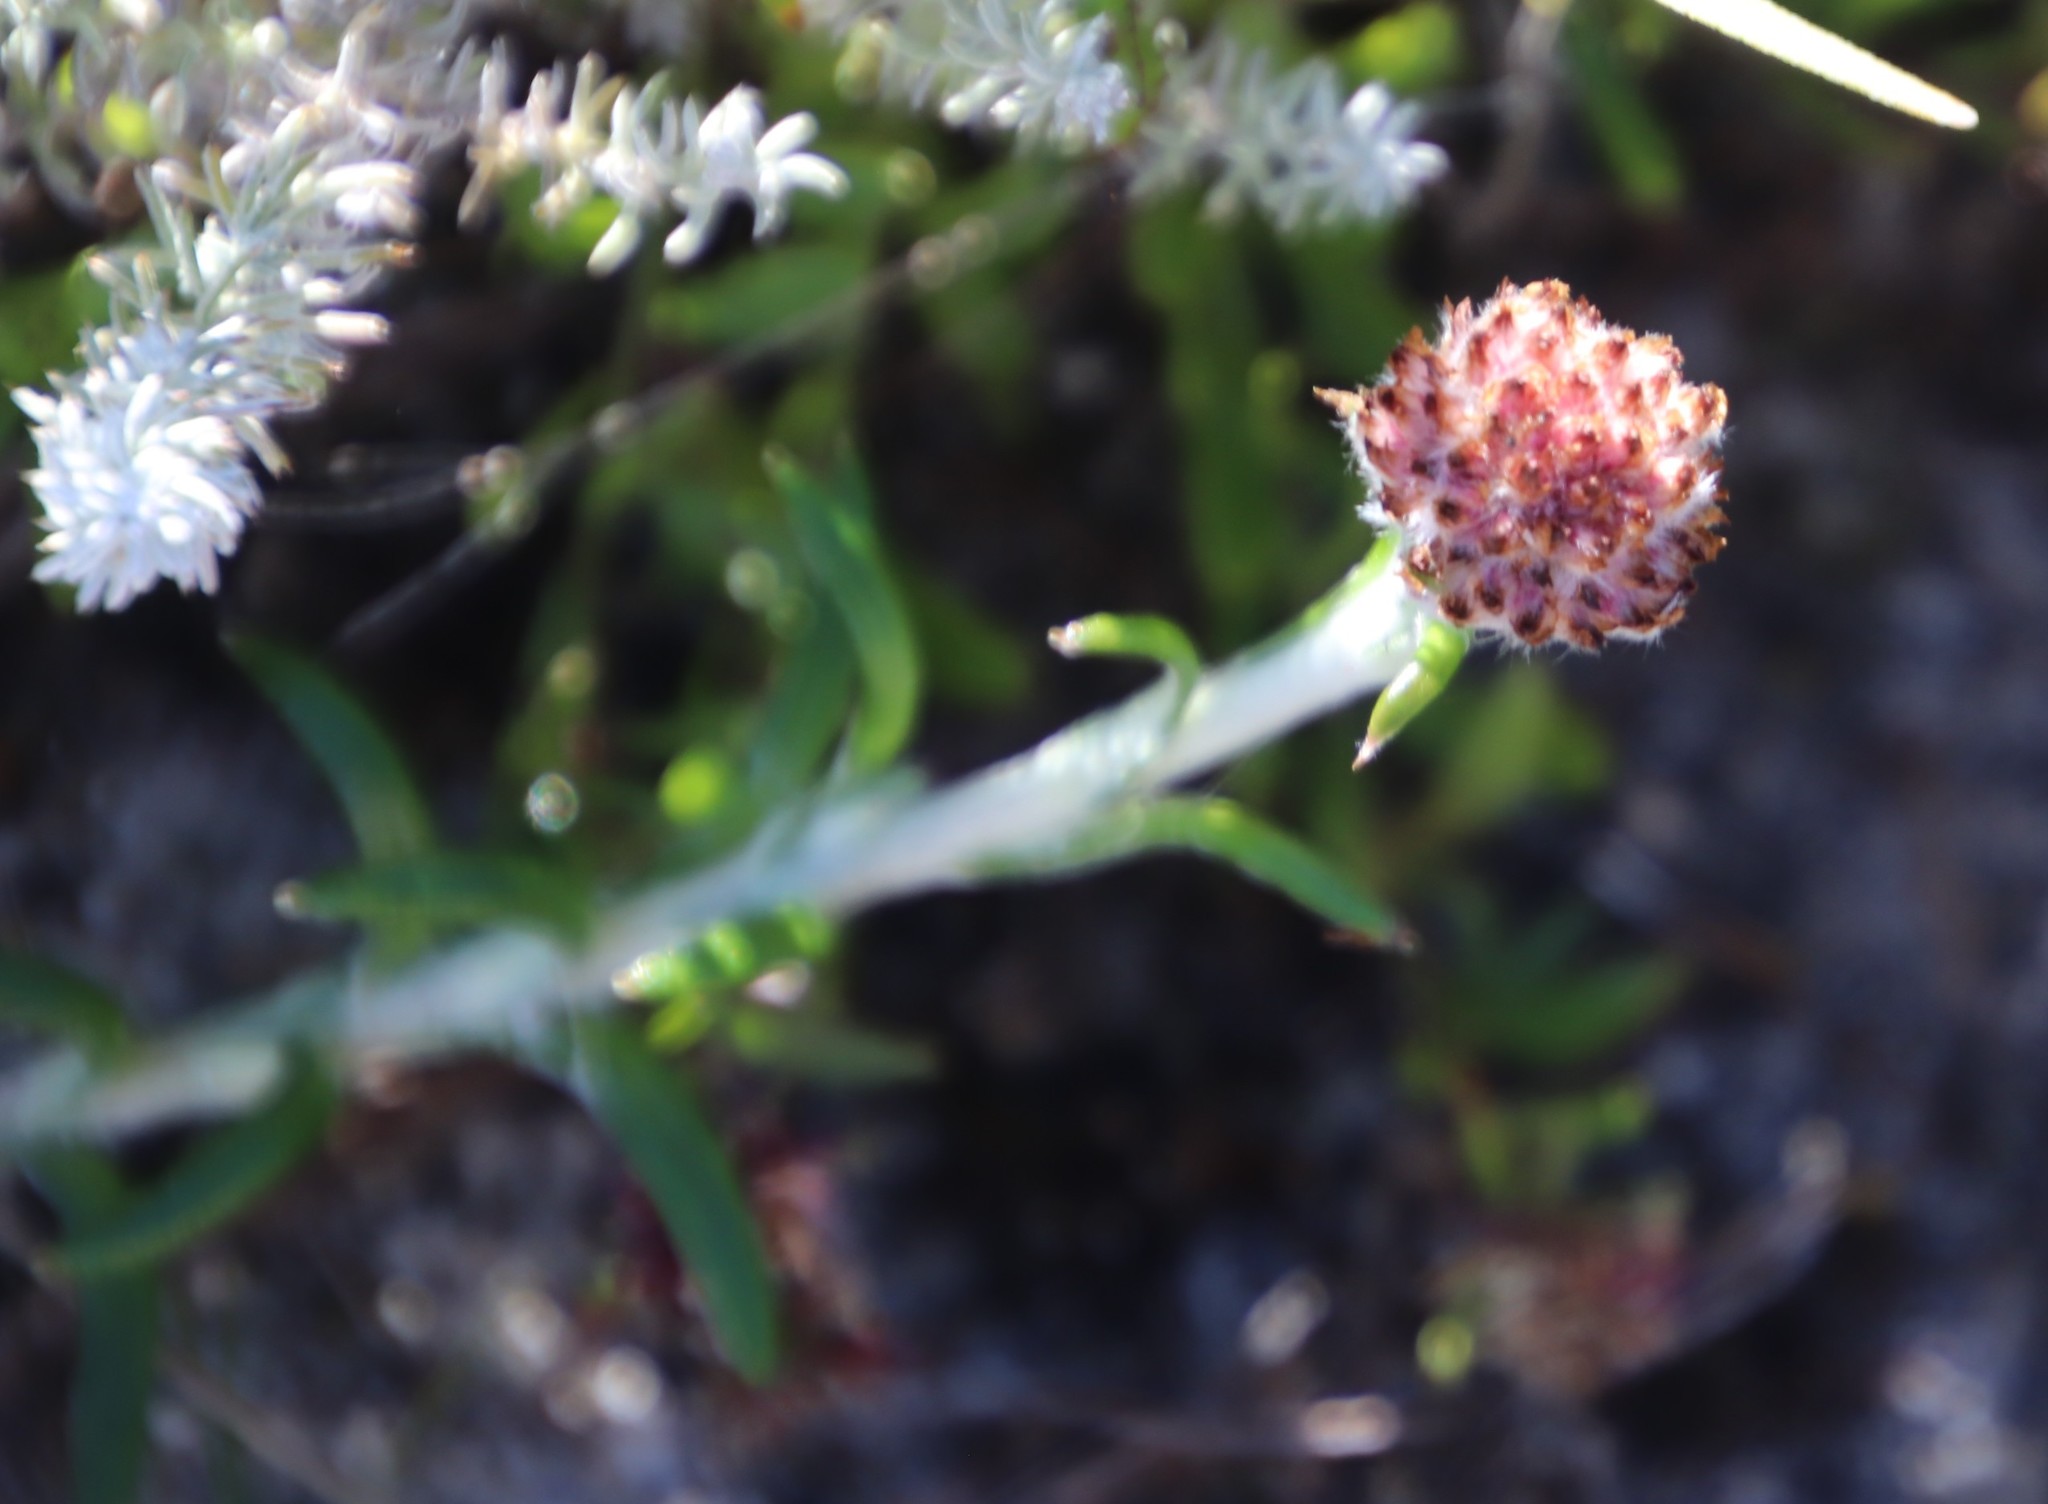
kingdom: Plantae
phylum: Tracheophyta
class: Magnoliopsida
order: Asterales
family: Asteraceae
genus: Anaxeton
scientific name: Anaxeton asperum
